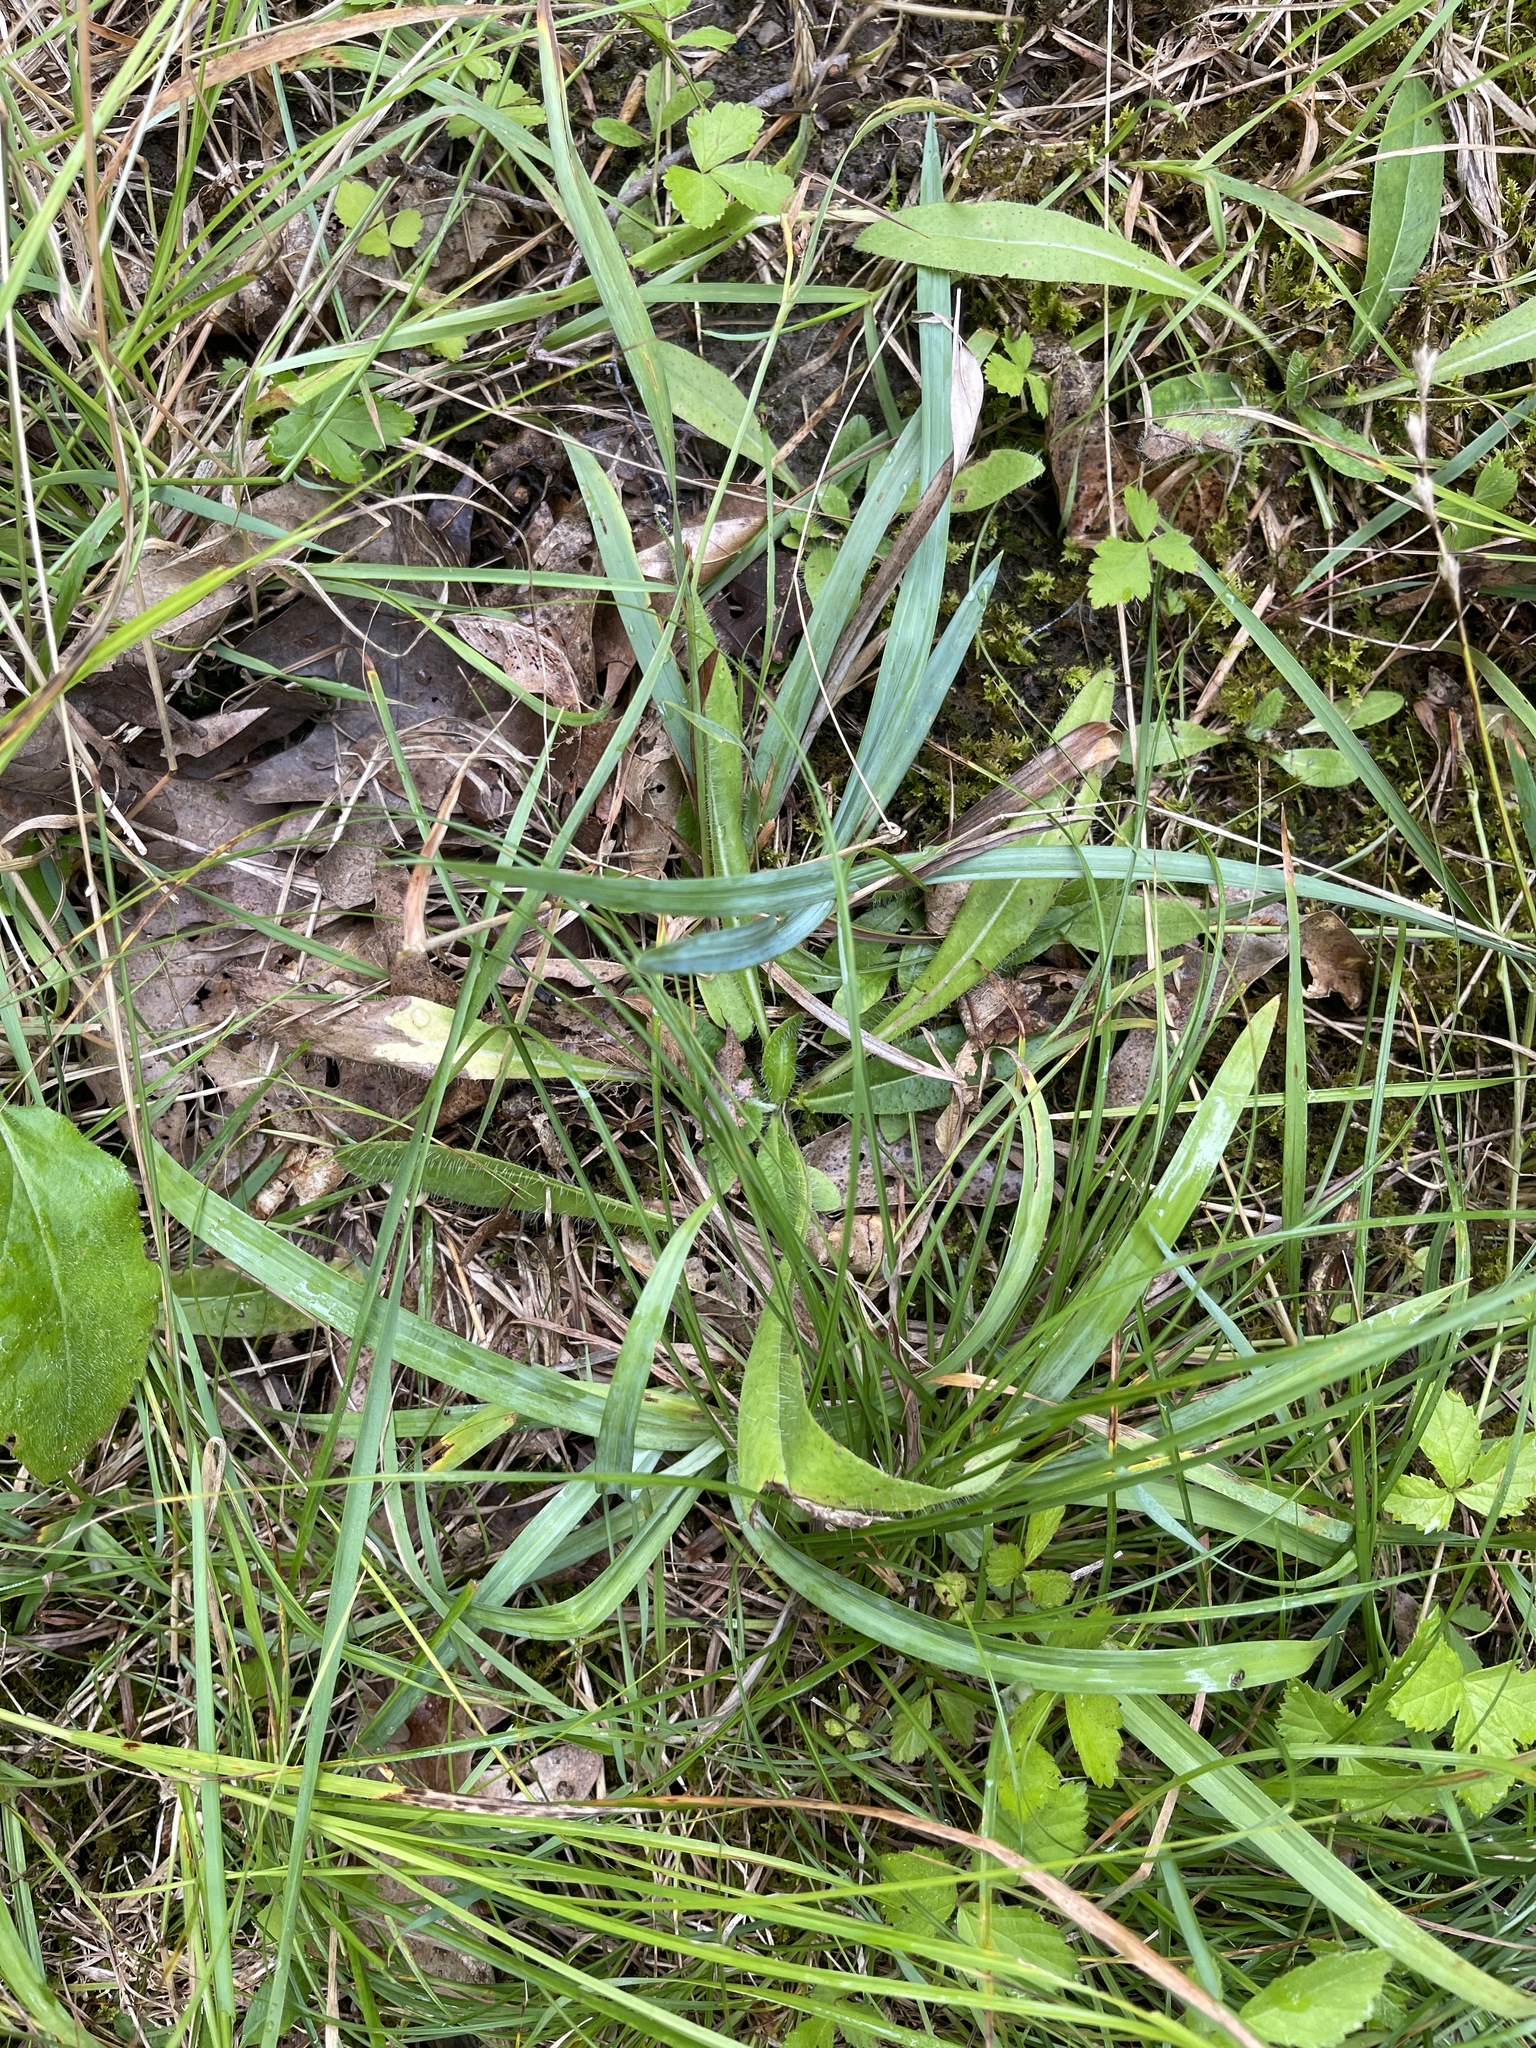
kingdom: Plantae
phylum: Tracheophyta
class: Liliopsida
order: Poales
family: Cyperaceae
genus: Carex
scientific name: Carex glaucodea
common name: Blue sedge
